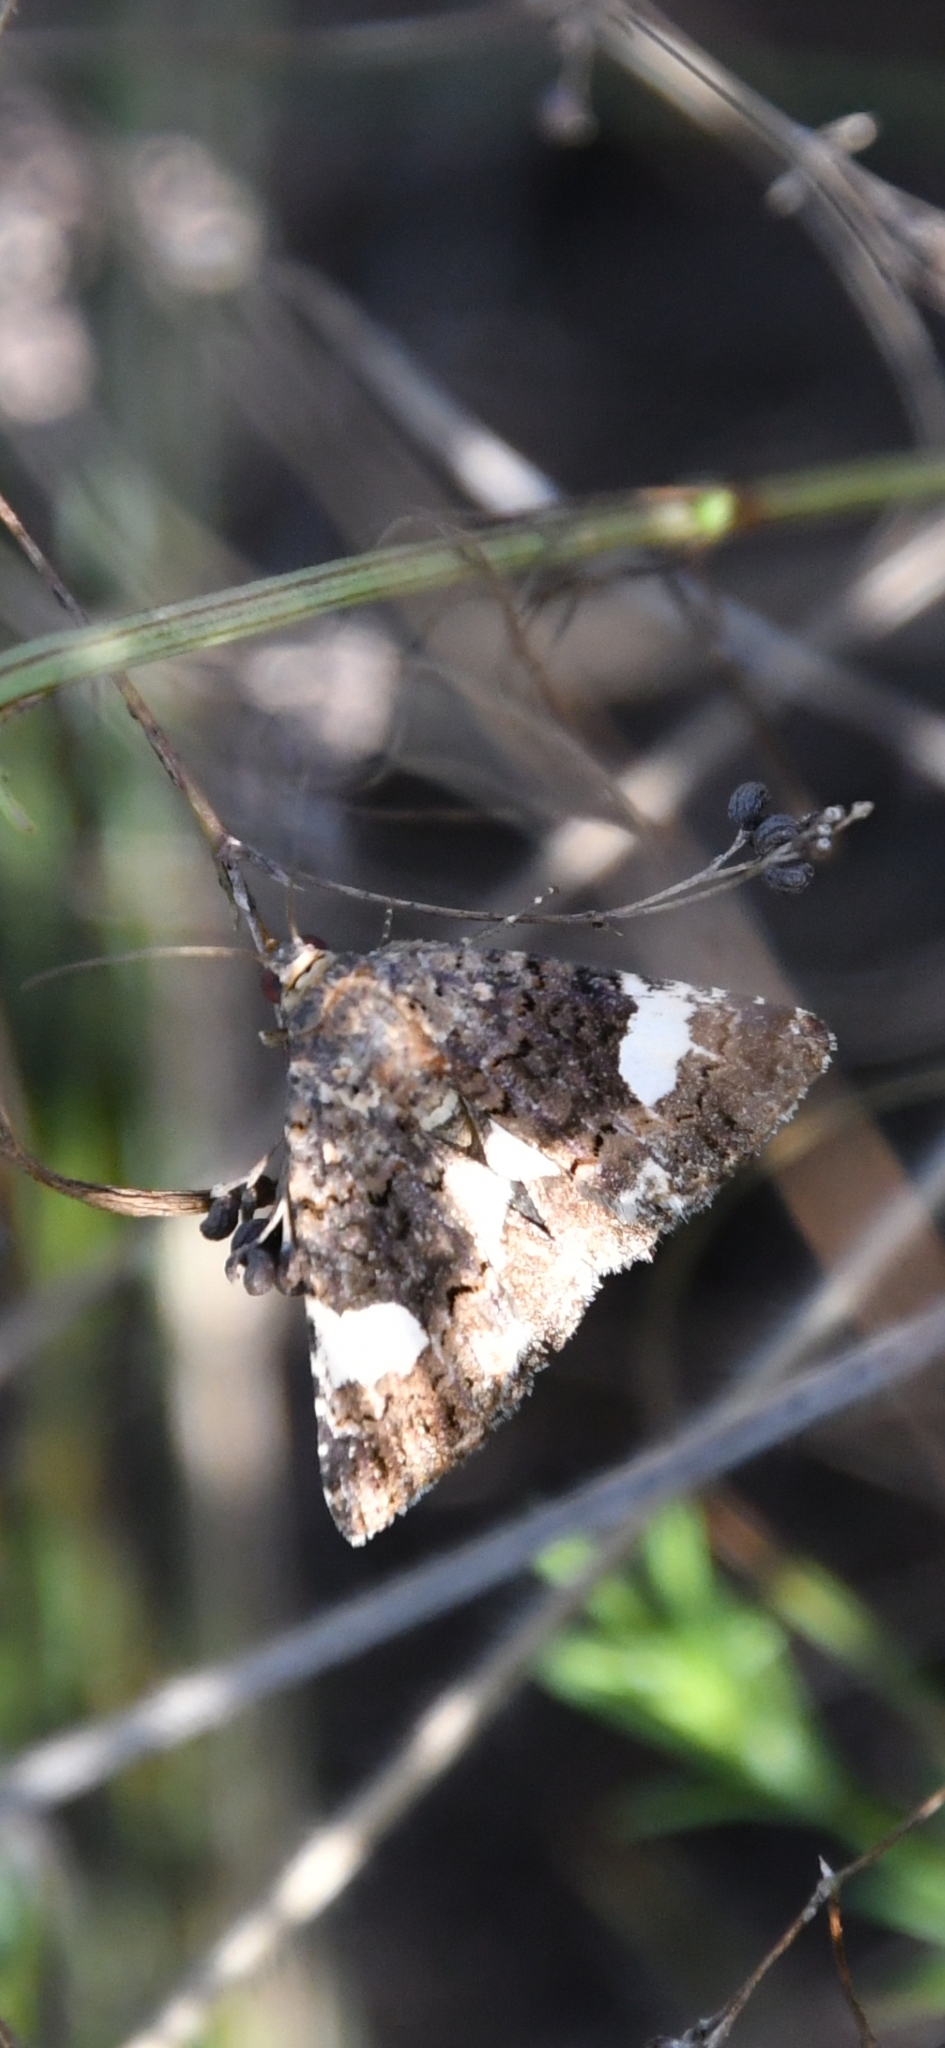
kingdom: Animalia
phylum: Arthropoda
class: Insecta
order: Lepidoptera
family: Erebidae
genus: Tyta
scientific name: Tyta luctuosa
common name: Four-spotted
